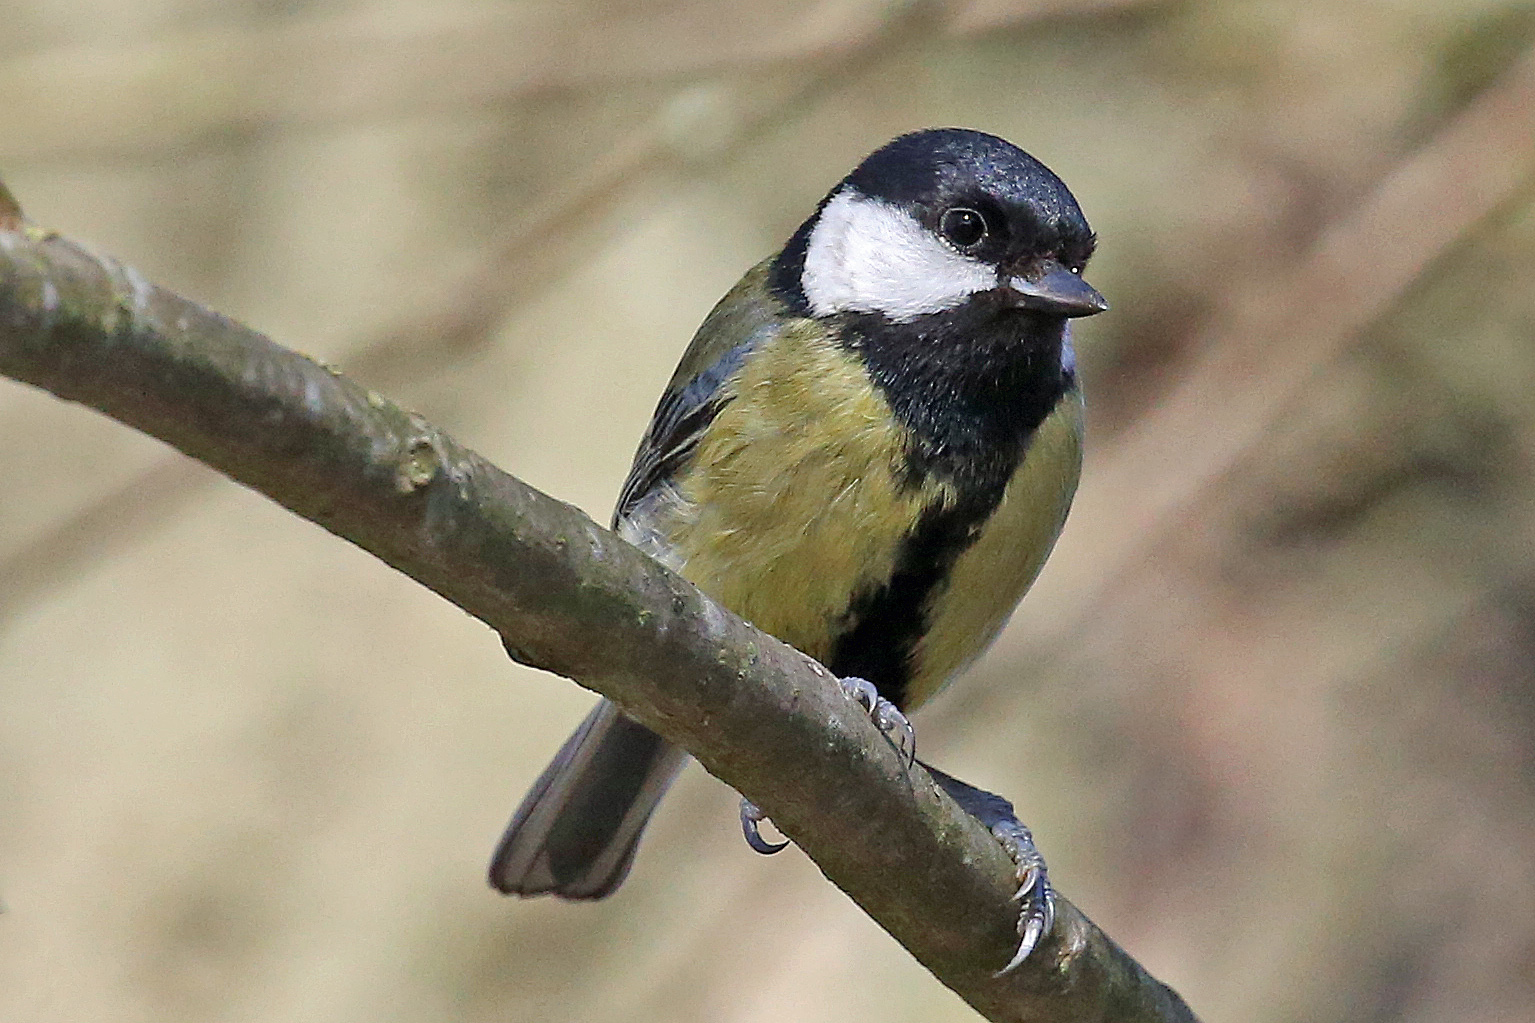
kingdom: Animalia
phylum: Chordata
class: Aves
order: Passeriformes
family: Paridae
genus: Parus
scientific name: Parus major
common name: Great tit
